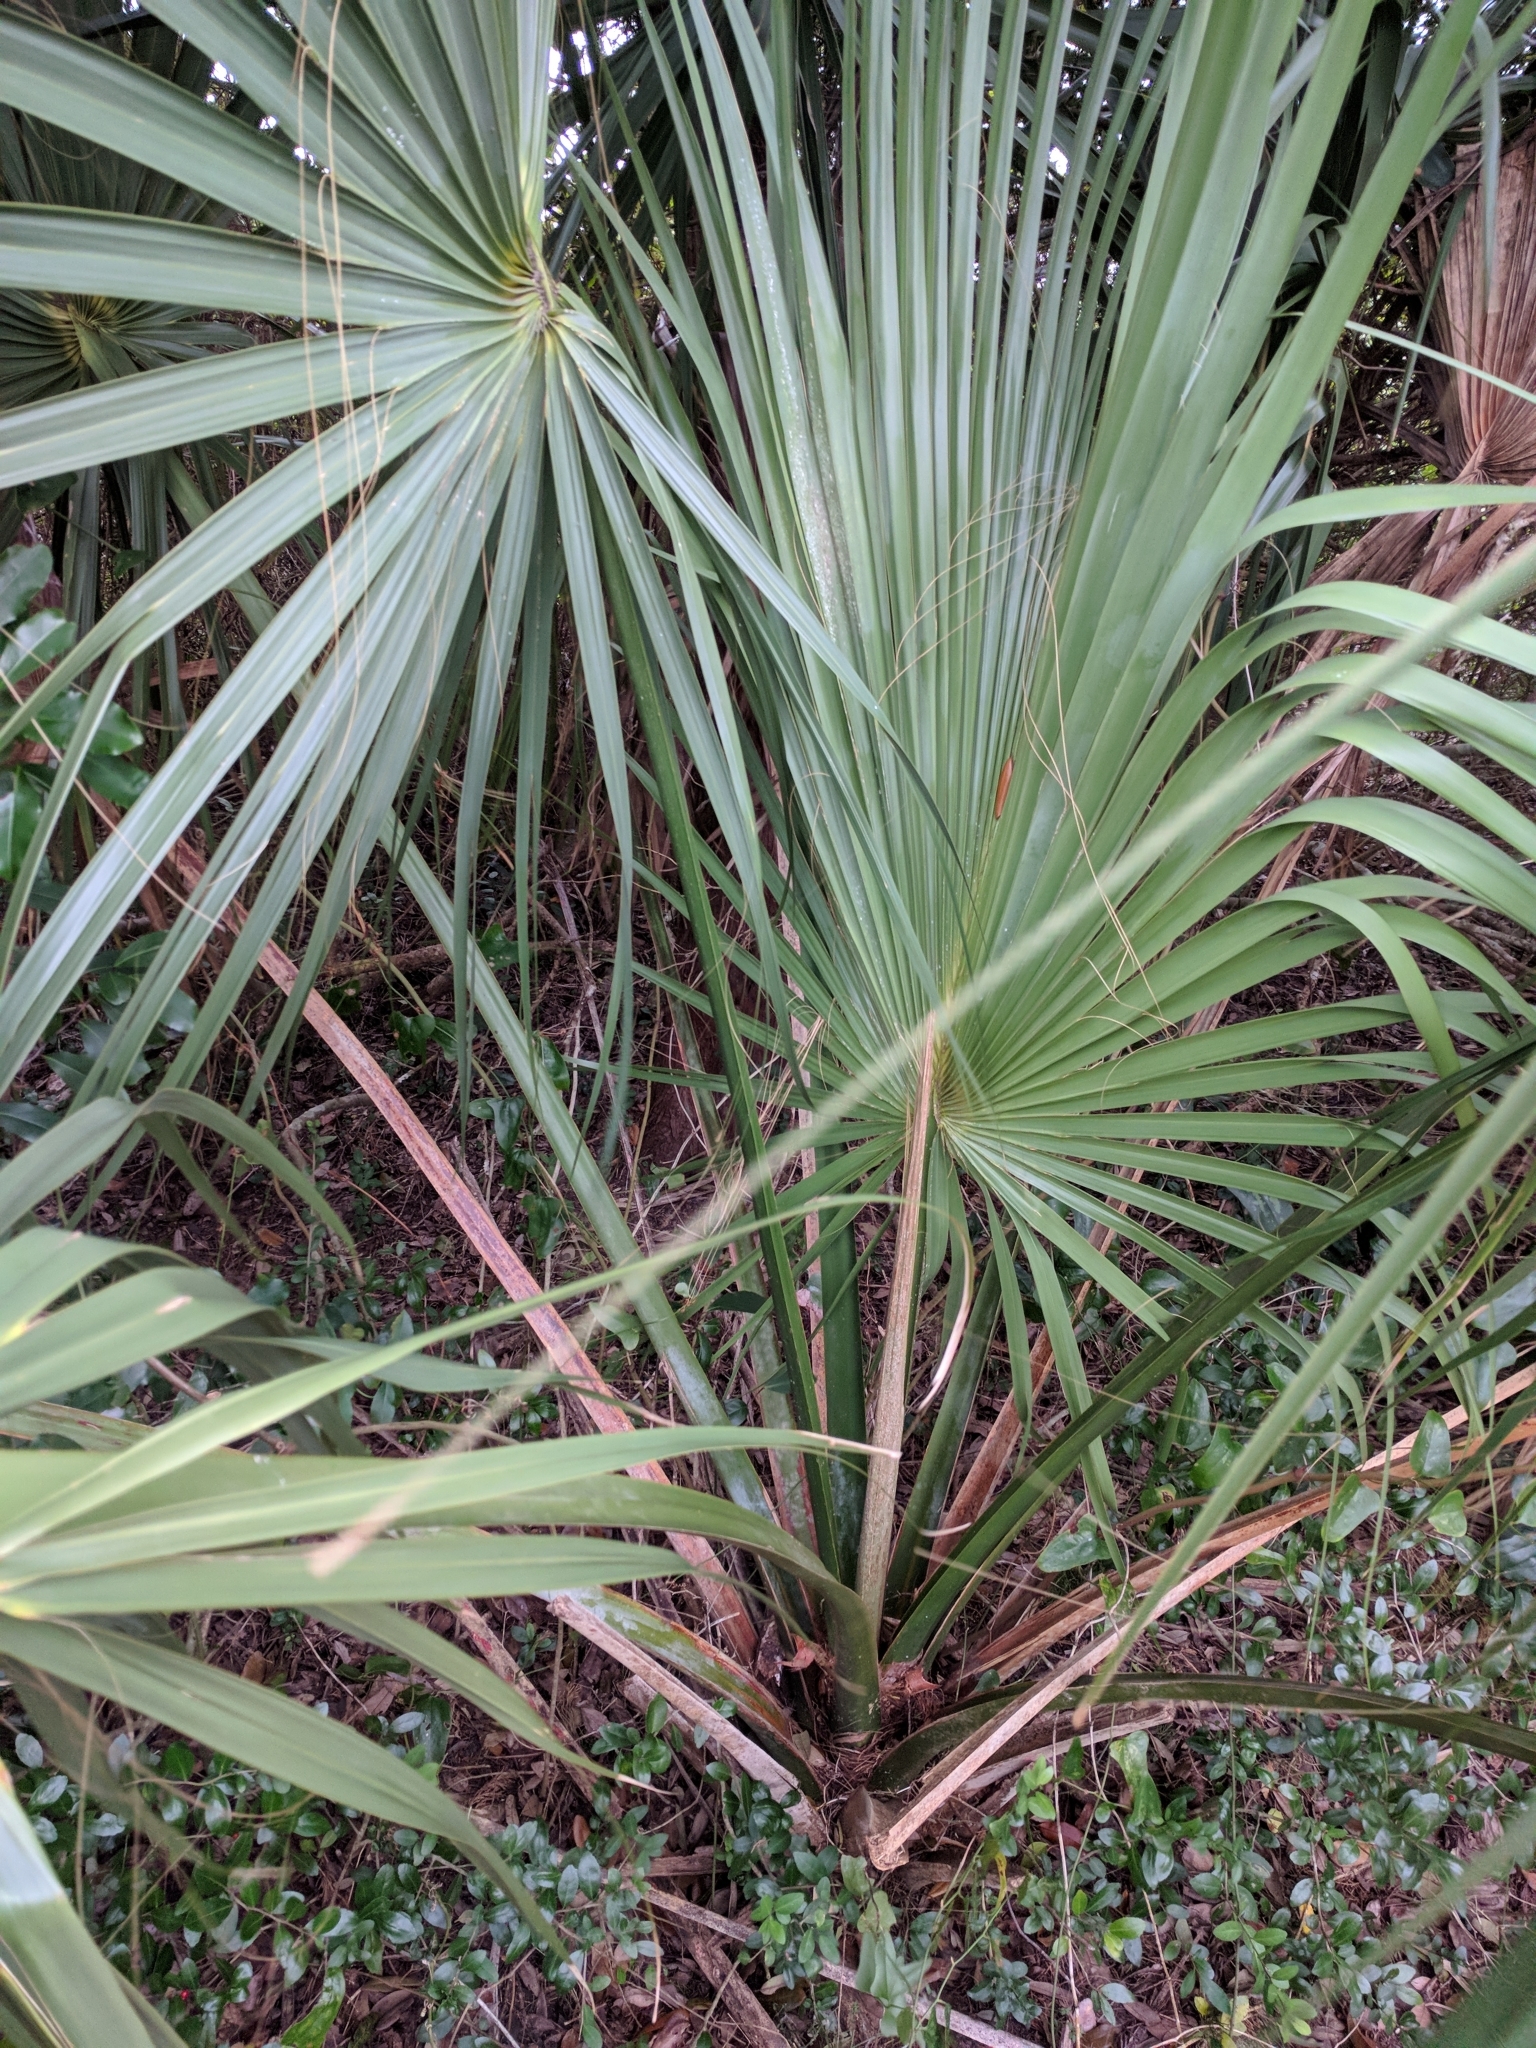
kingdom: Plantae
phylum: Tracheophyta
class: Liliopsida
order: Arecales
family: Arecaceae
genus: Sabal
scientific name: Sabal palmetto
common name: Blue palmetto
